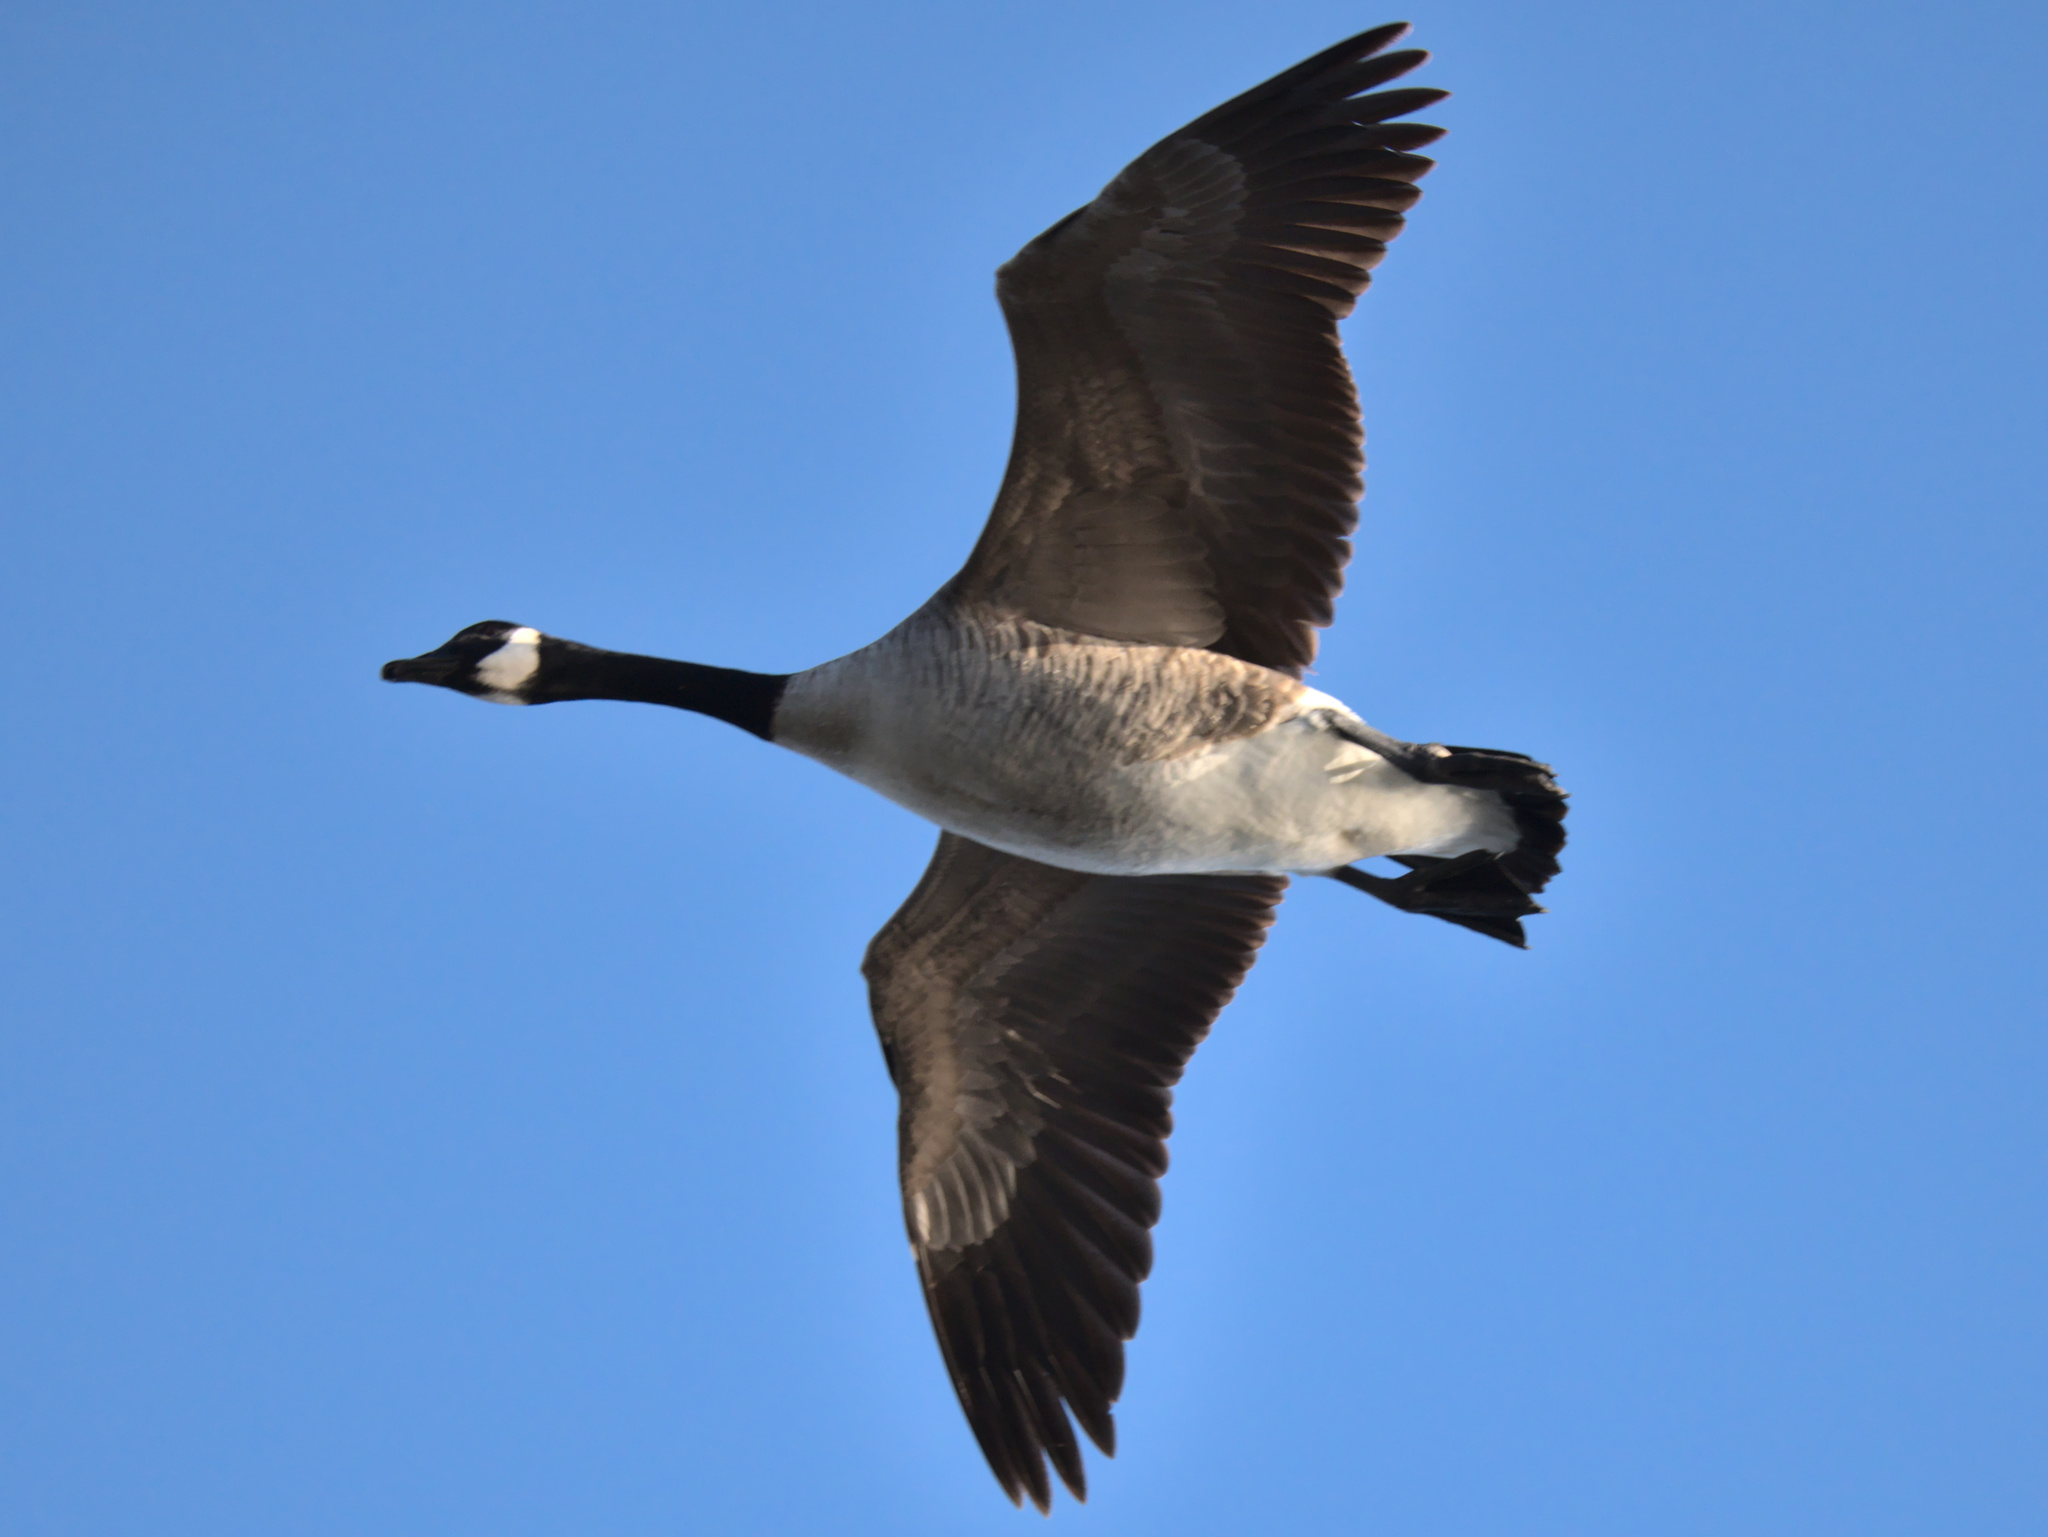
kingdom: Animalia
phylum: Chordata
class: Aves
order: Anseriformes
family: Anatidae
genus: Branta
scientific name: Branta canadensis
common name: Canada goose
